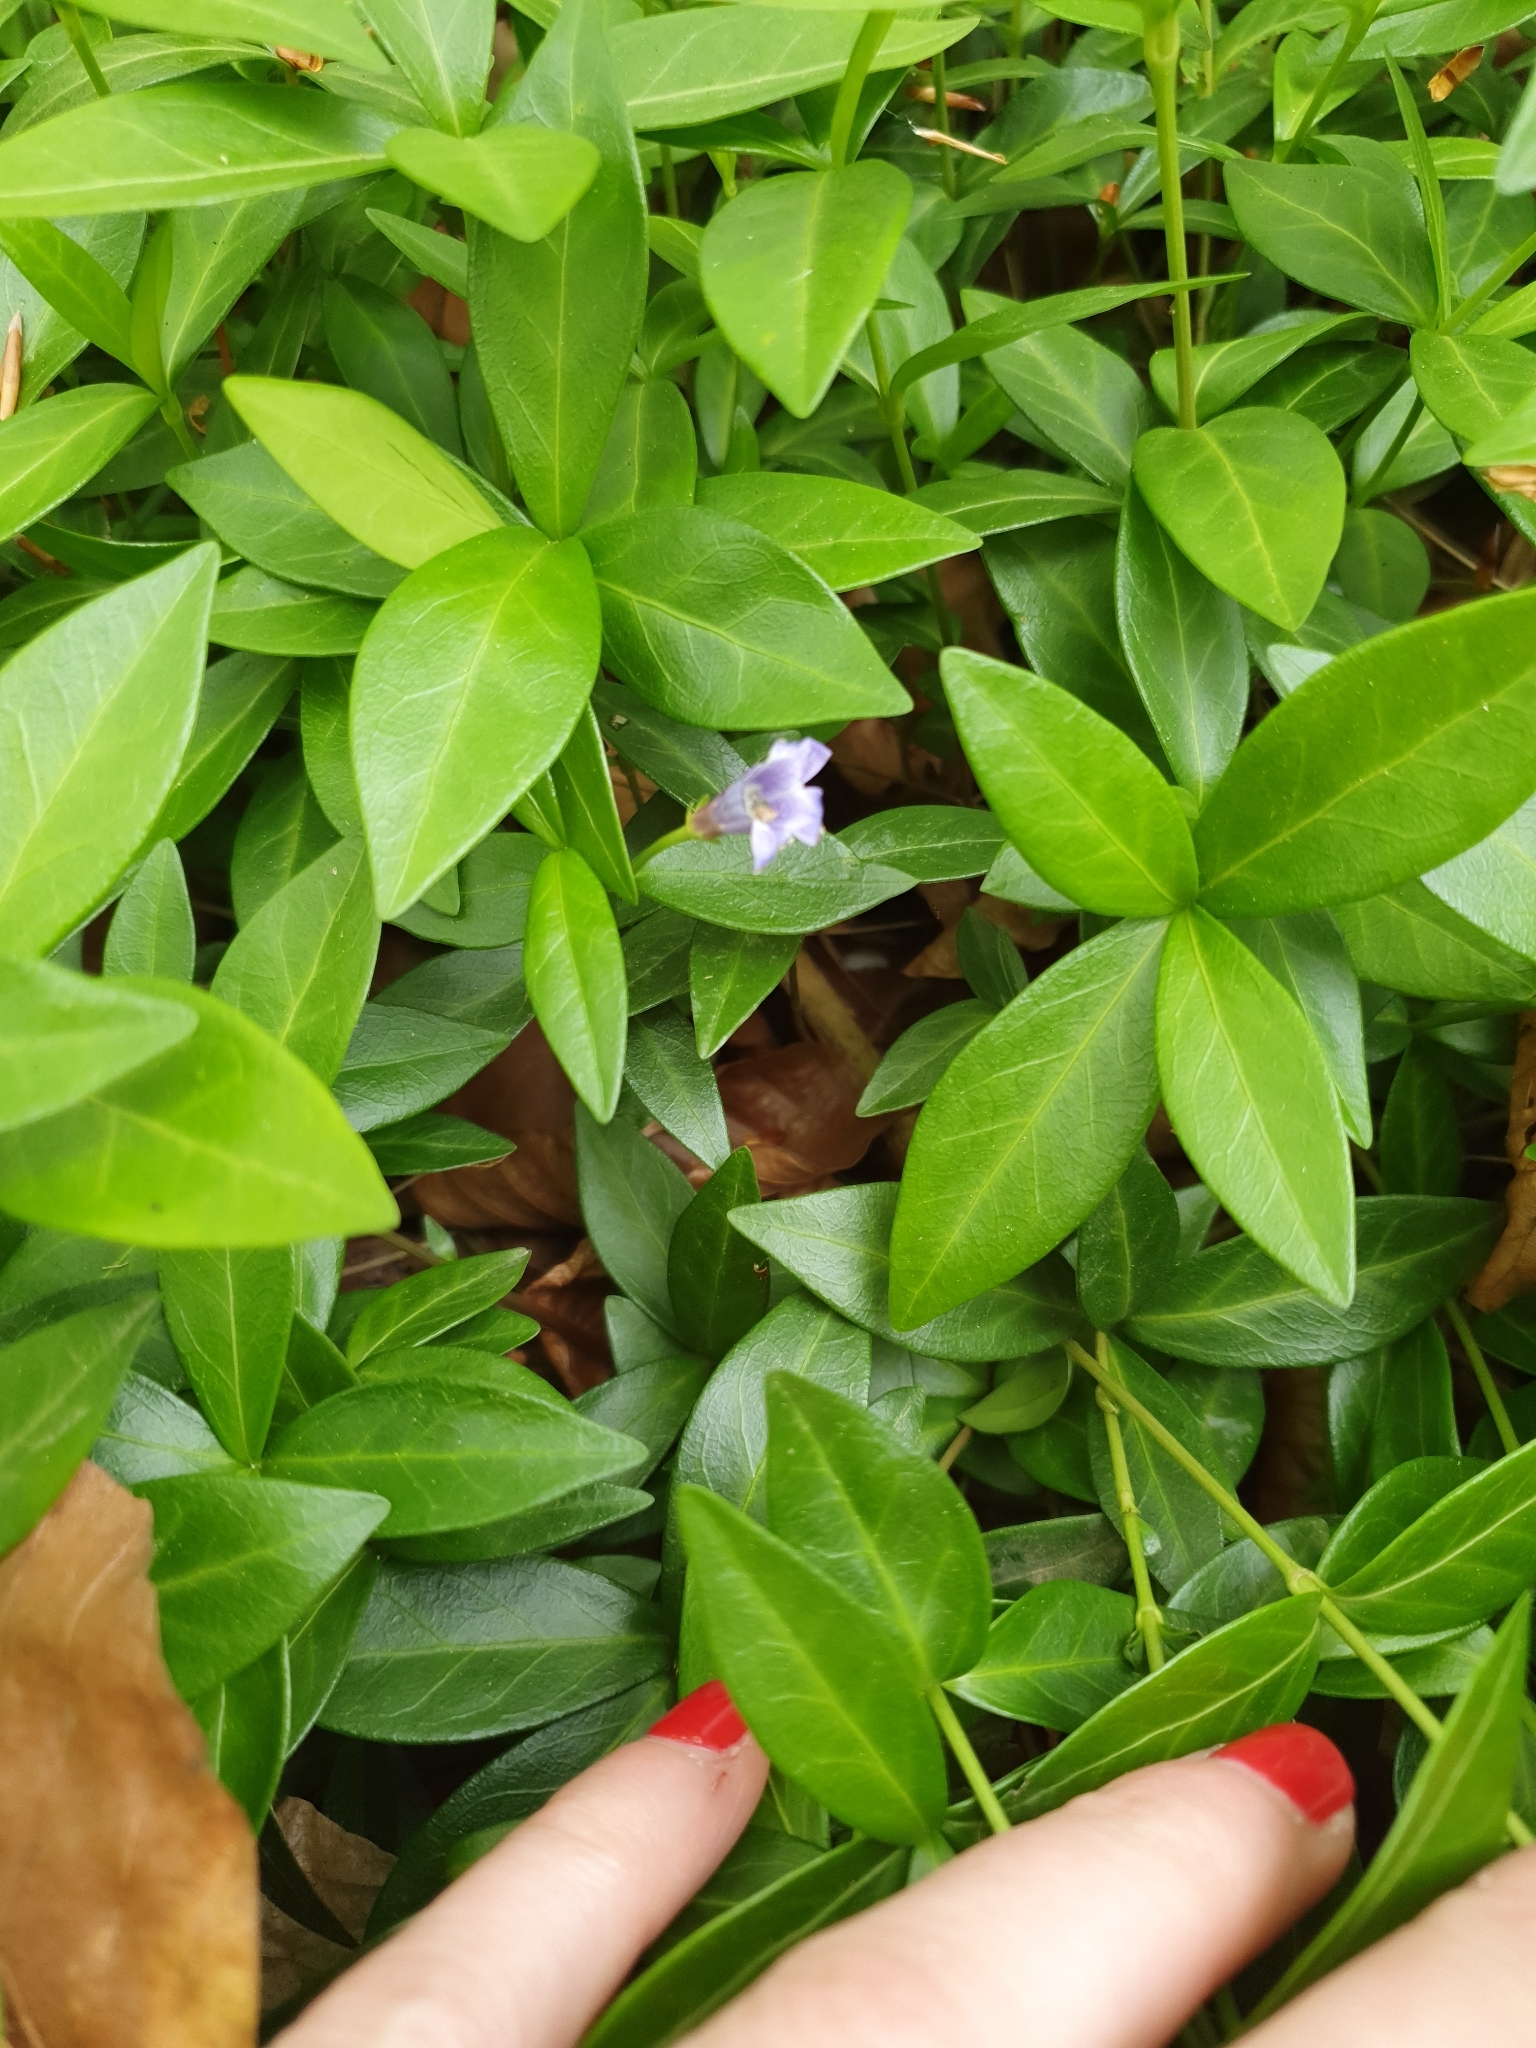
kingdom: Plantae
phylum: Tracheophyta
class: Magnoliopsida
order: Gentianales
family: Apocynaceae
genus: Vinca
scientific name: Vinca minor
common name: Lesser periwinkle
